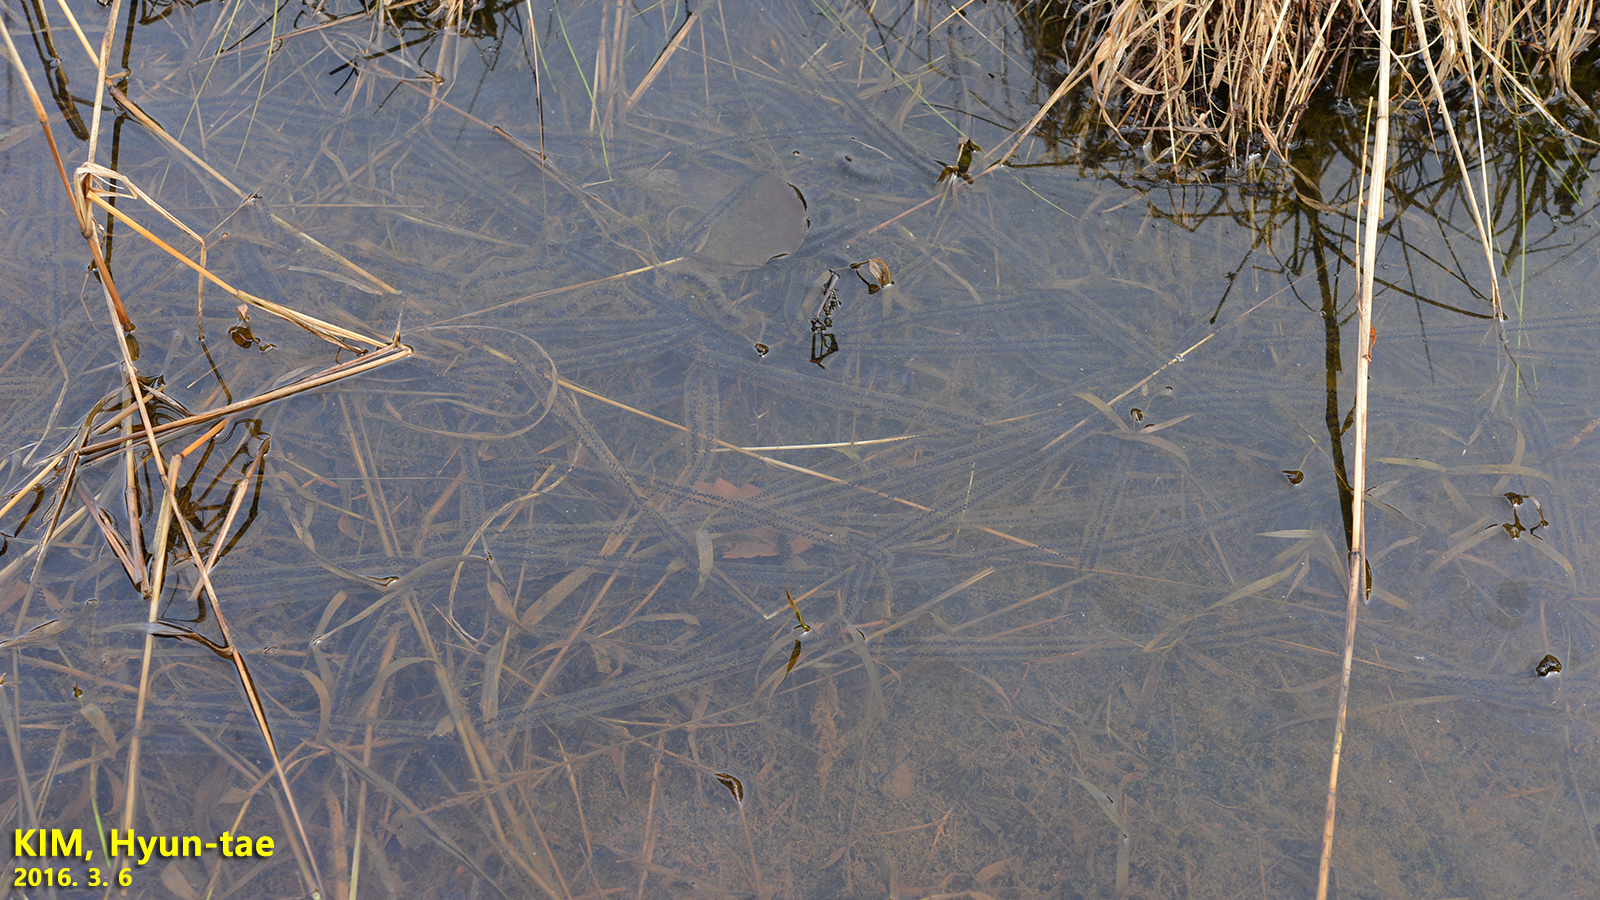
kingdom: Animalia
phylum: Chordata
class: Amphibia
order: Anura
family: Bufonidae
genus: Bufo
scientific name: Bufo gargarizans
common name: Asiatic toad
